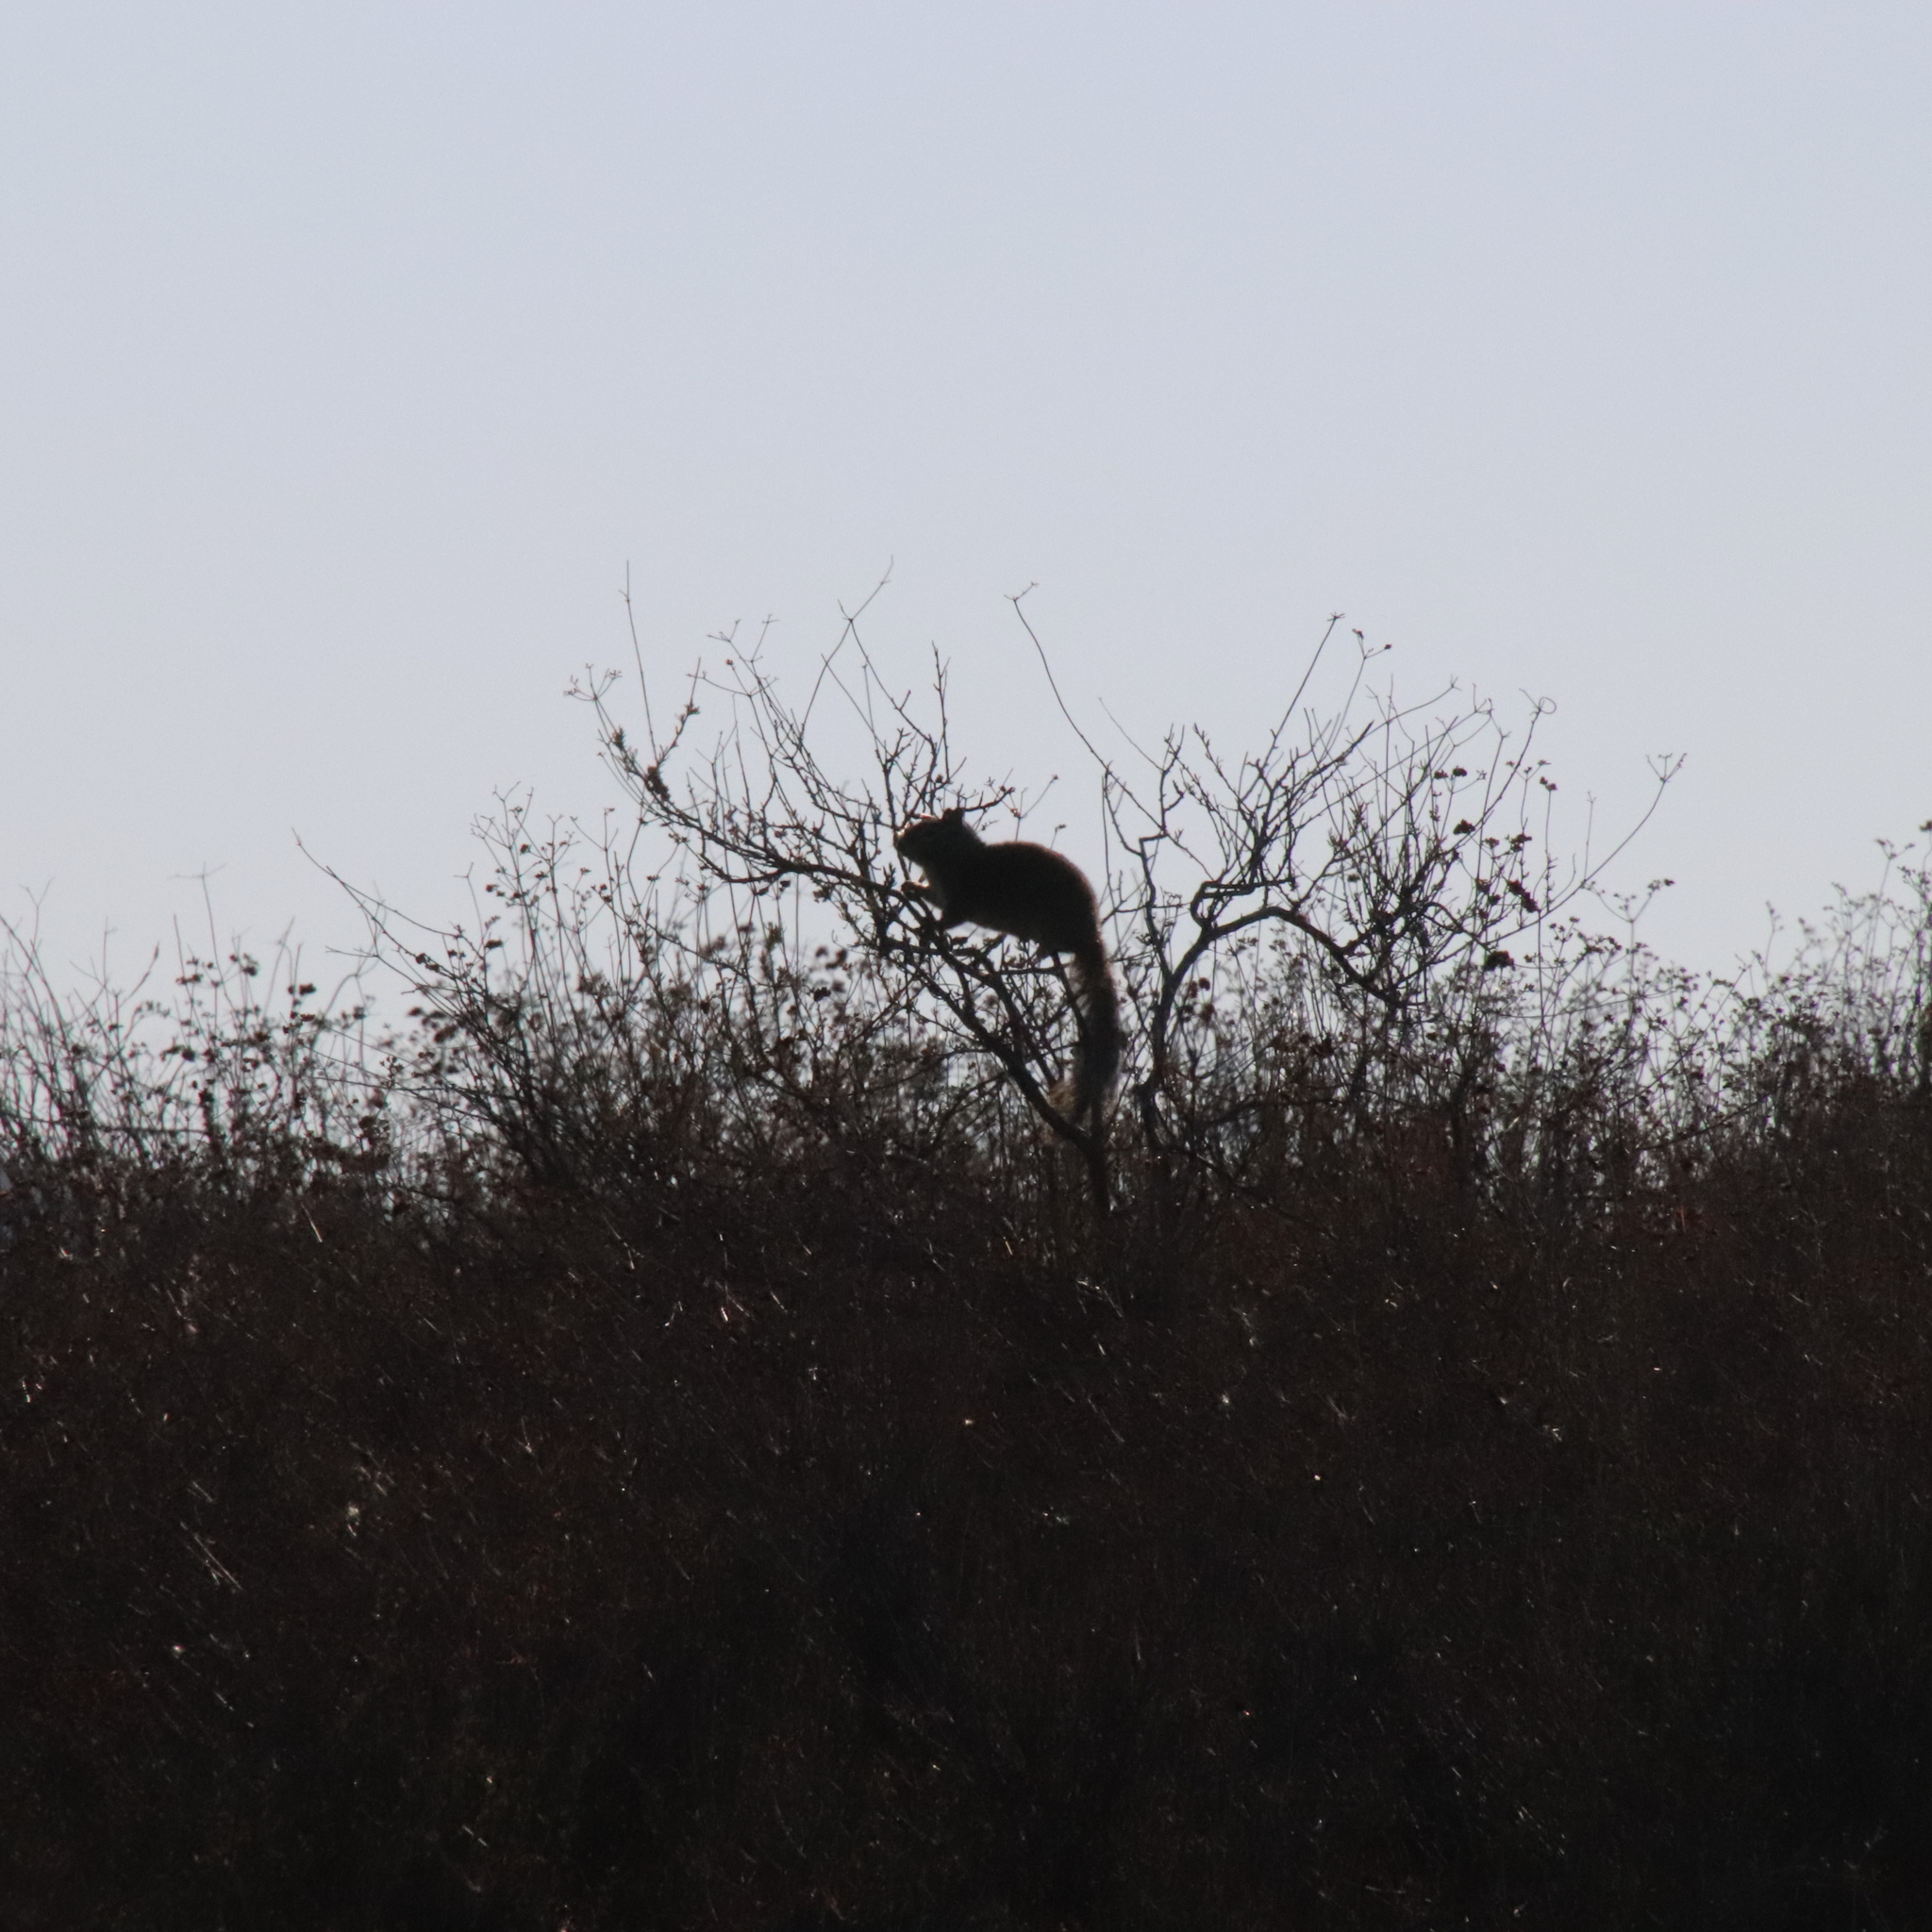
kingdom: Animalia
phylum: Chordata
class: Mammalia
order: Rodentia
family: Sciuridae
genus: Otospermophilus
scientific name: Otospermophilus beecheyi
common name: California ground squirrel
